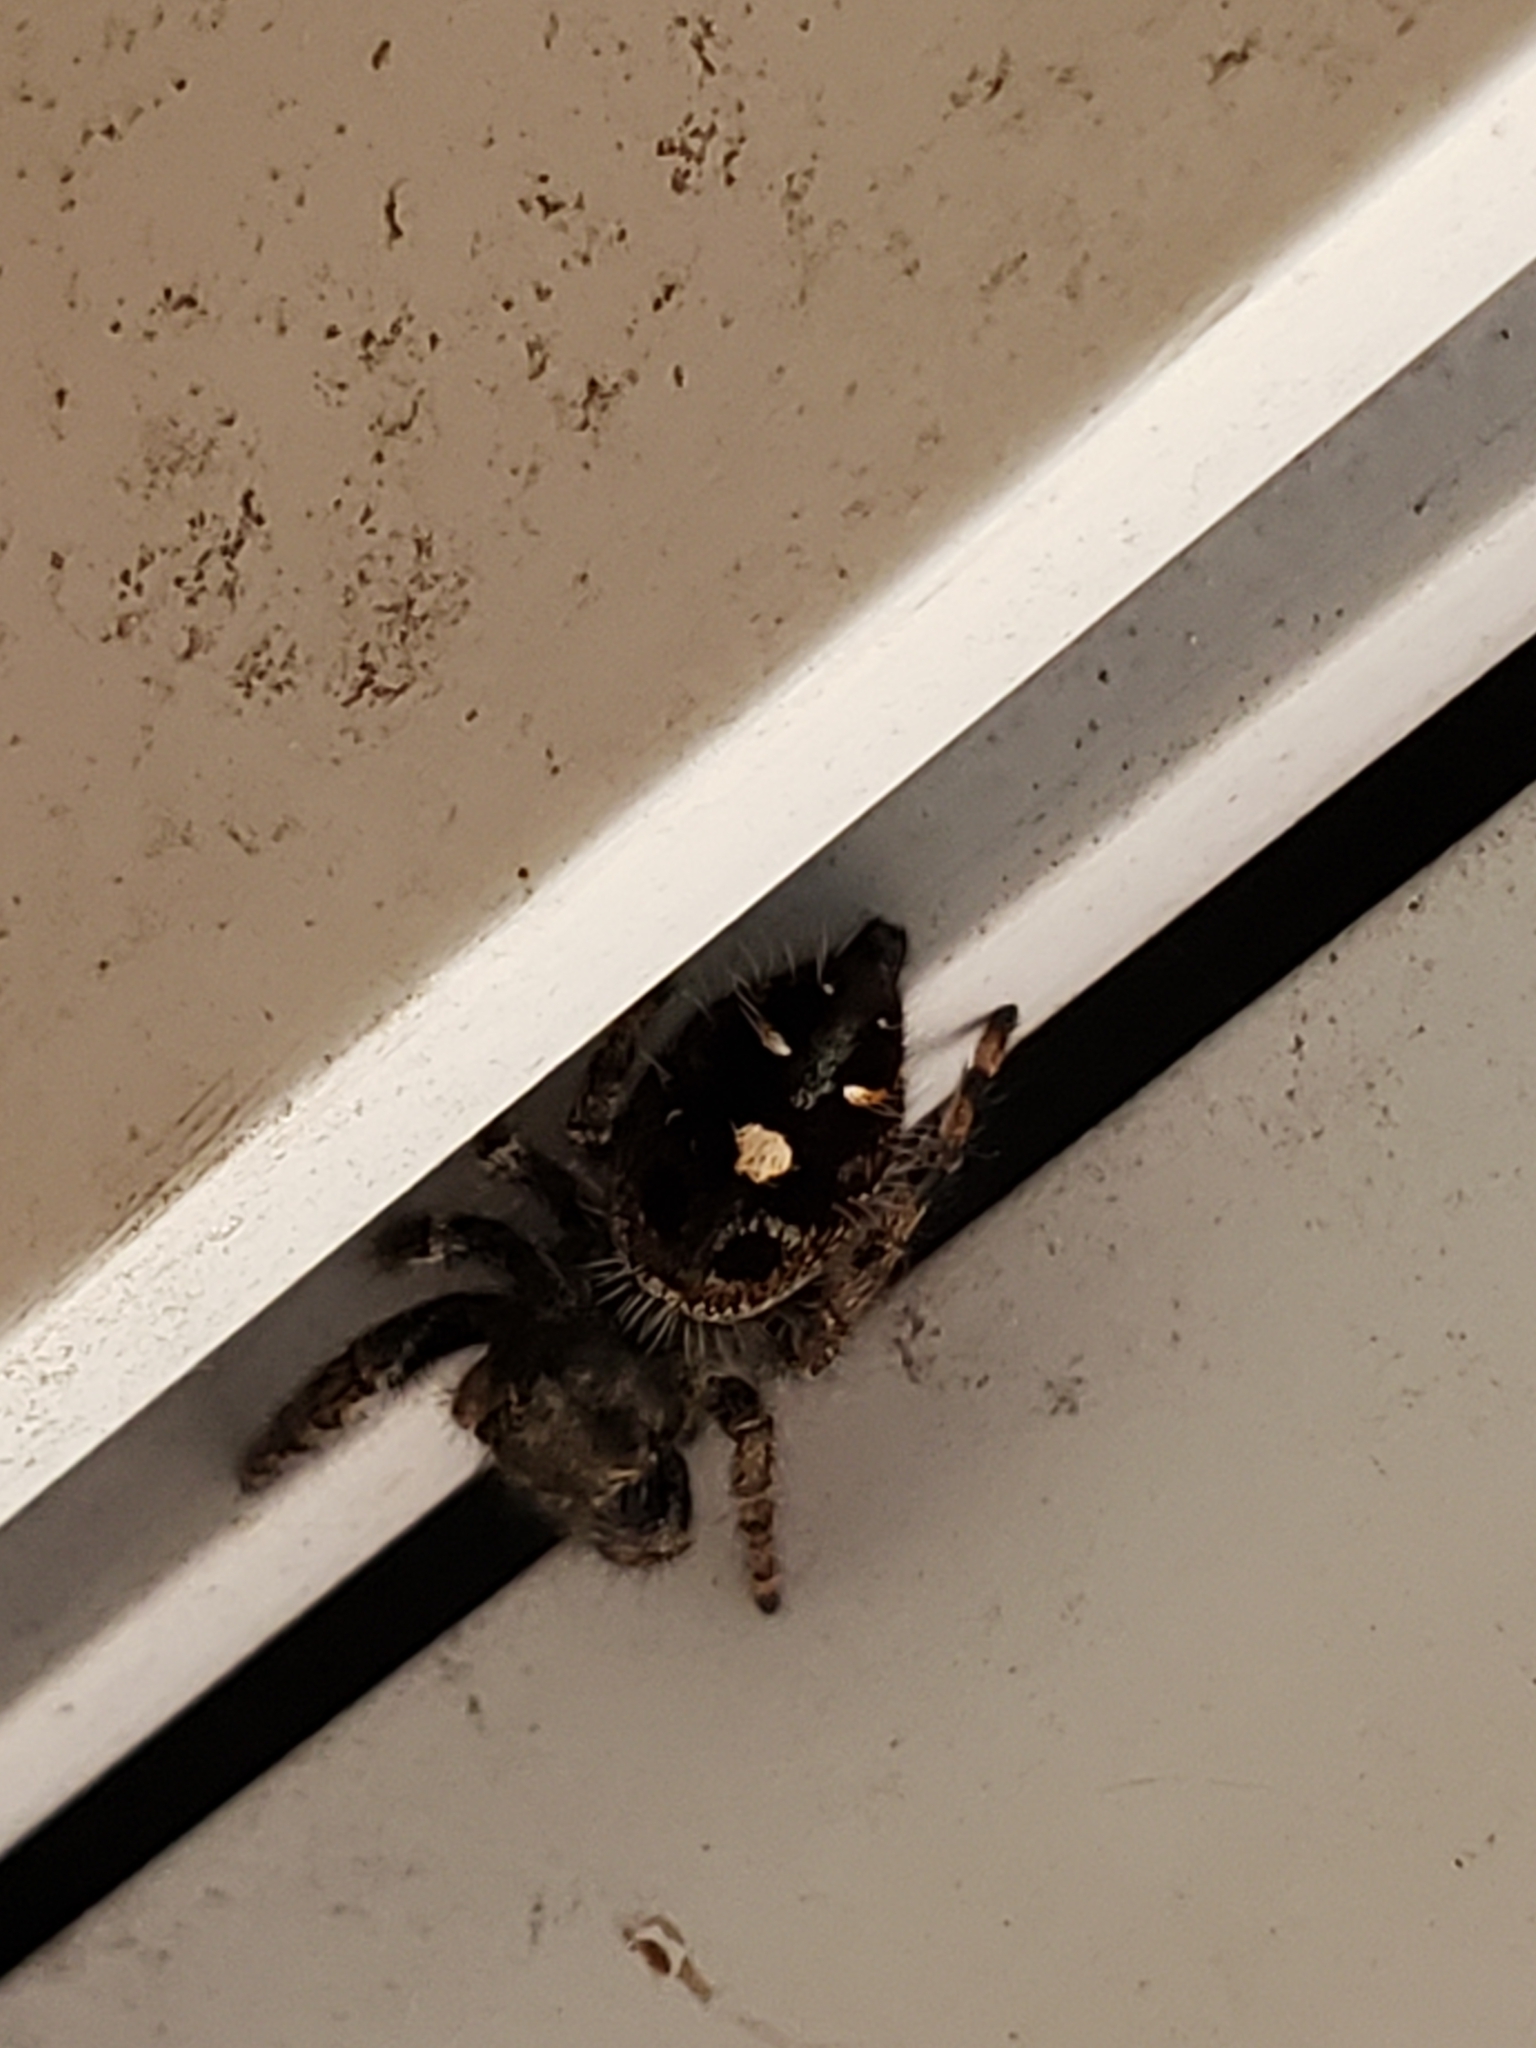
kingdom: Animalia
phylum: Arthropoda
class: Arachnida
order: Araneae
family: Salticidae
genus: Phidippus
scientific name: Phidippus audax
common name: Bold jumper
